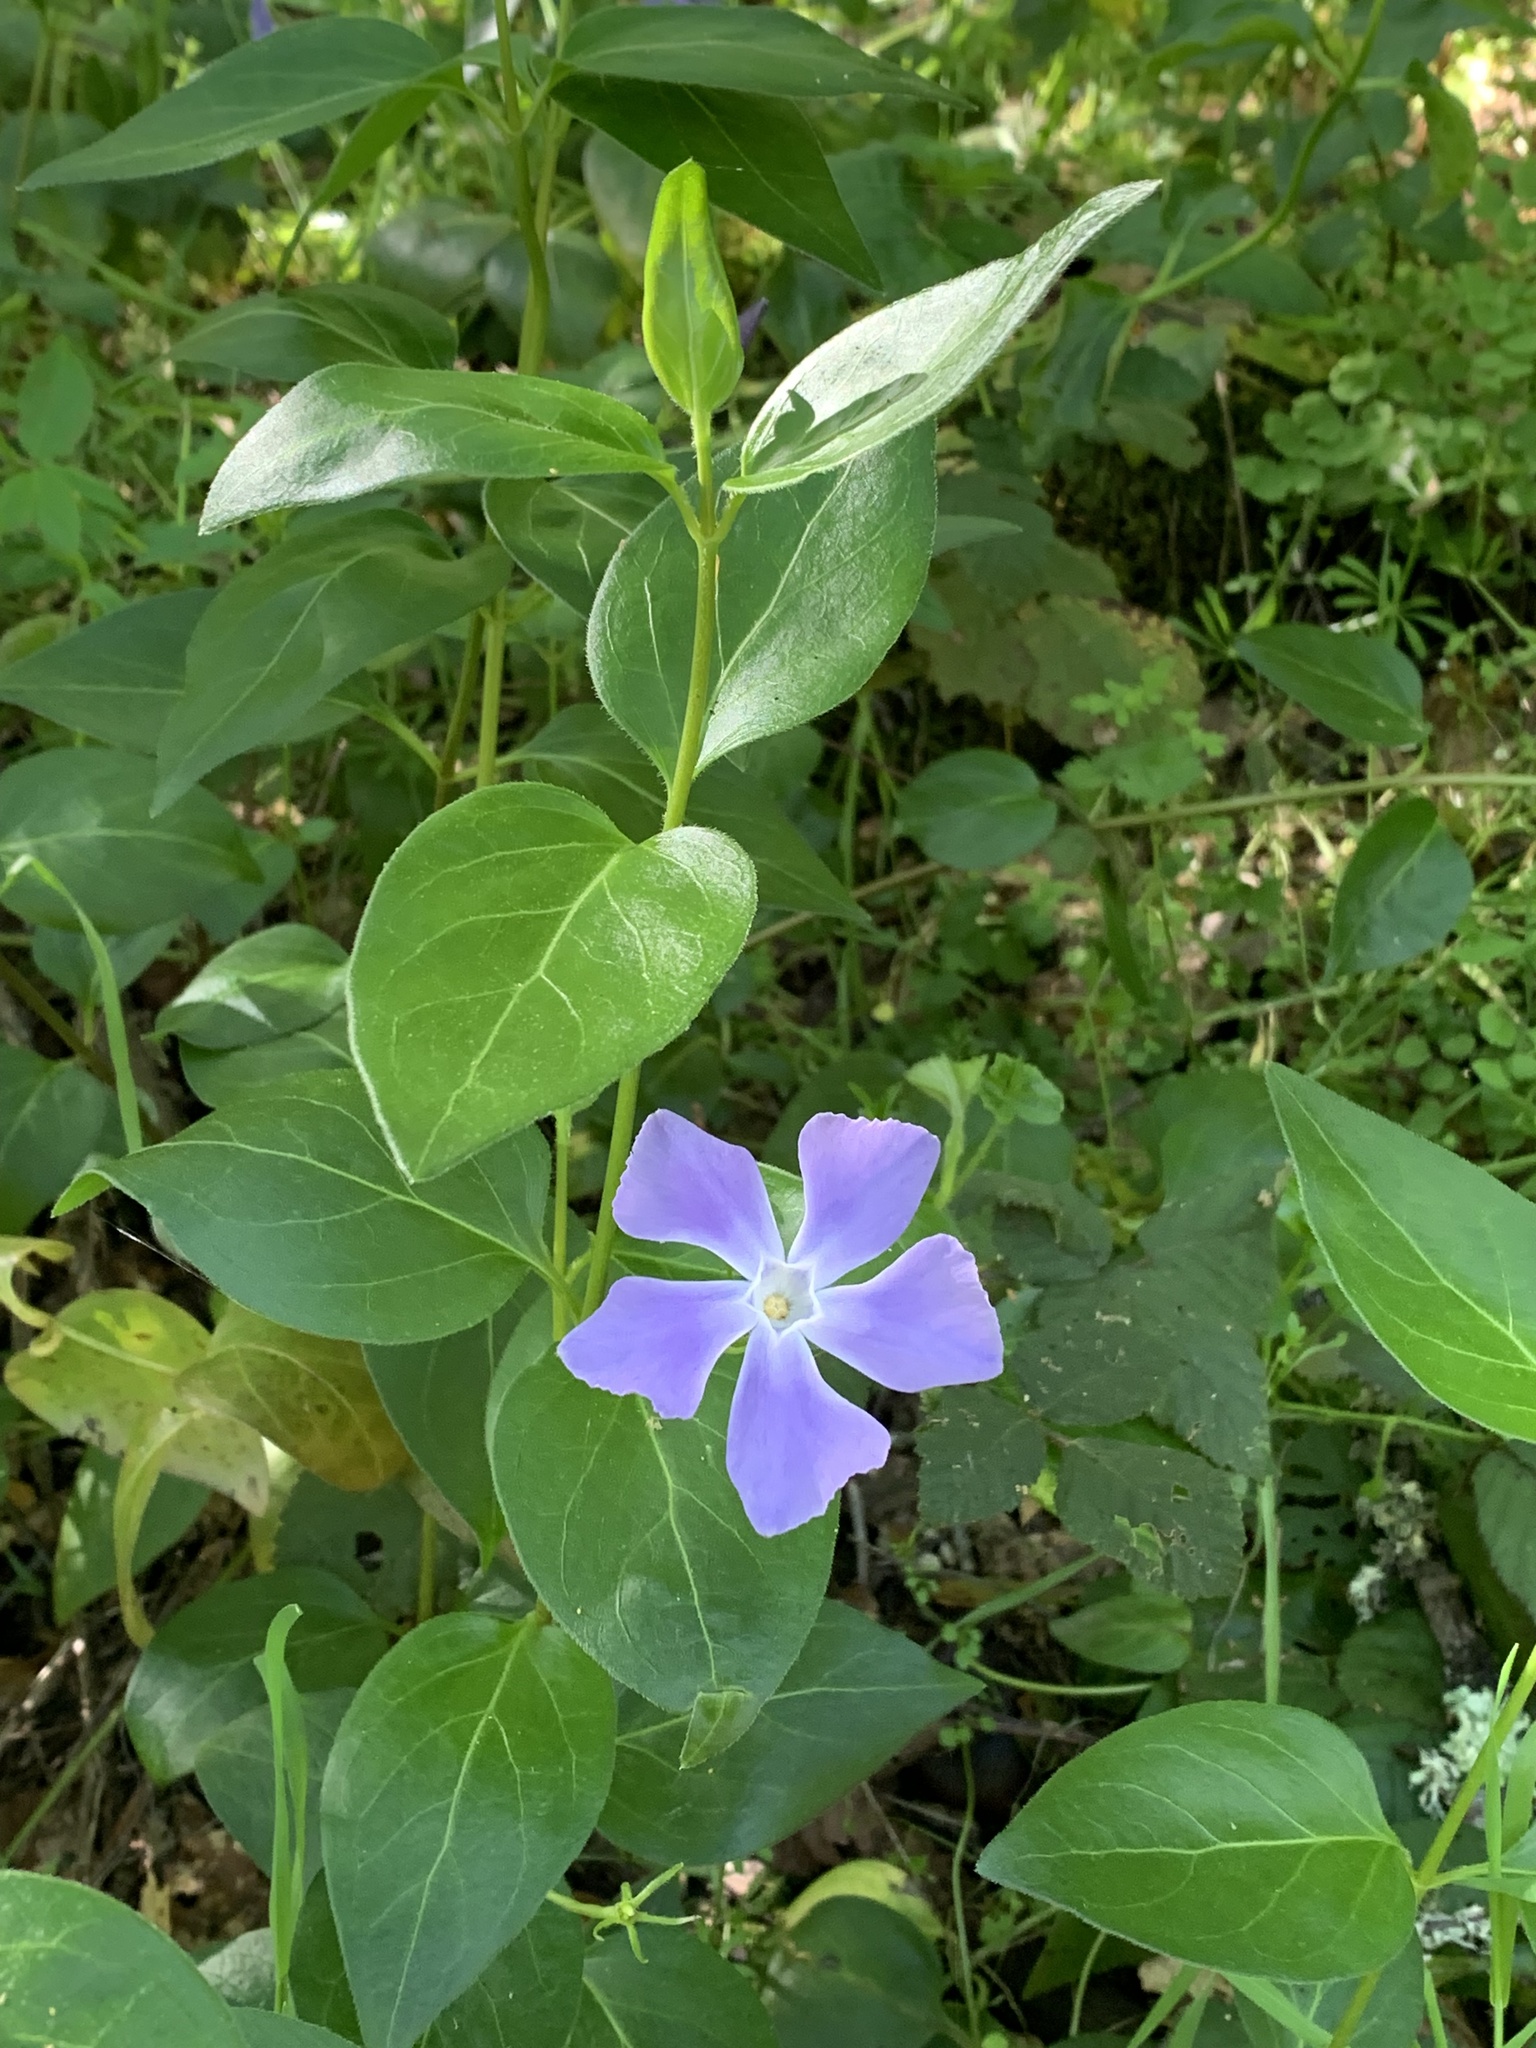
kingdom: Plantae
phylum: Tracheophyta
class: Magnoliopsida
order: Gentianales
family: Apocynaceae
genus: Vinca
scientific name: Vinca major
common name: Greater periwinkle
